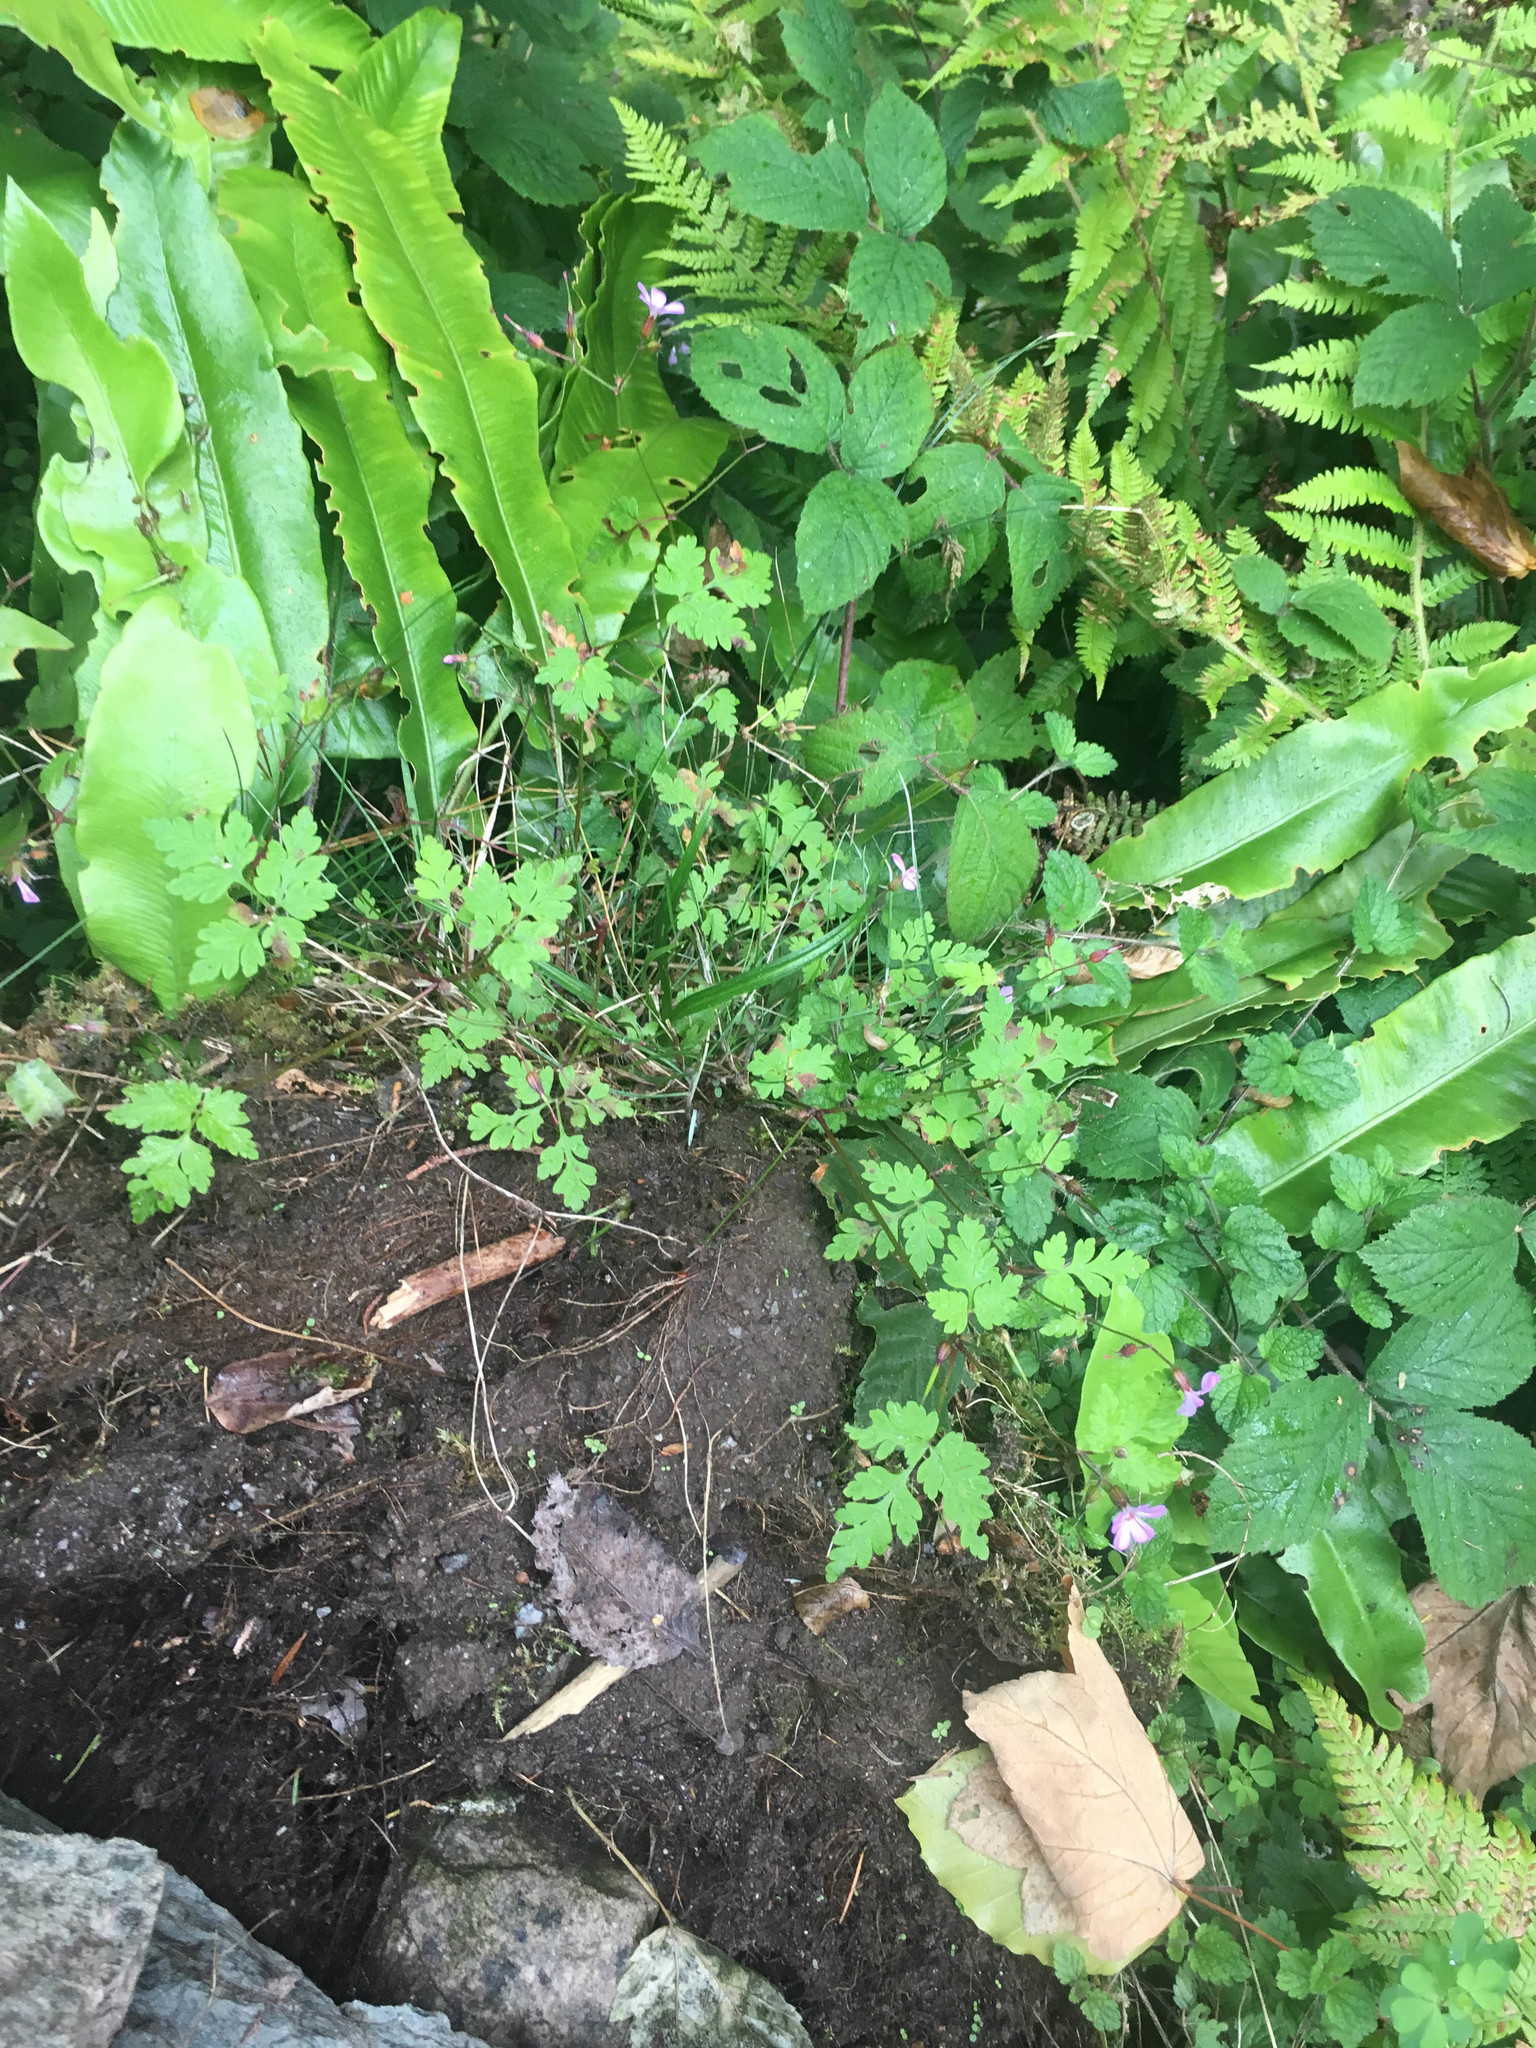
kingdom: Plantae
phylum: Tracheophyta
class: Magnoliopsida
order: Geraniales
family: Geraniaceae
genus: Geranium
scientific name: Geranium robertianum
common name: Herb-robert
